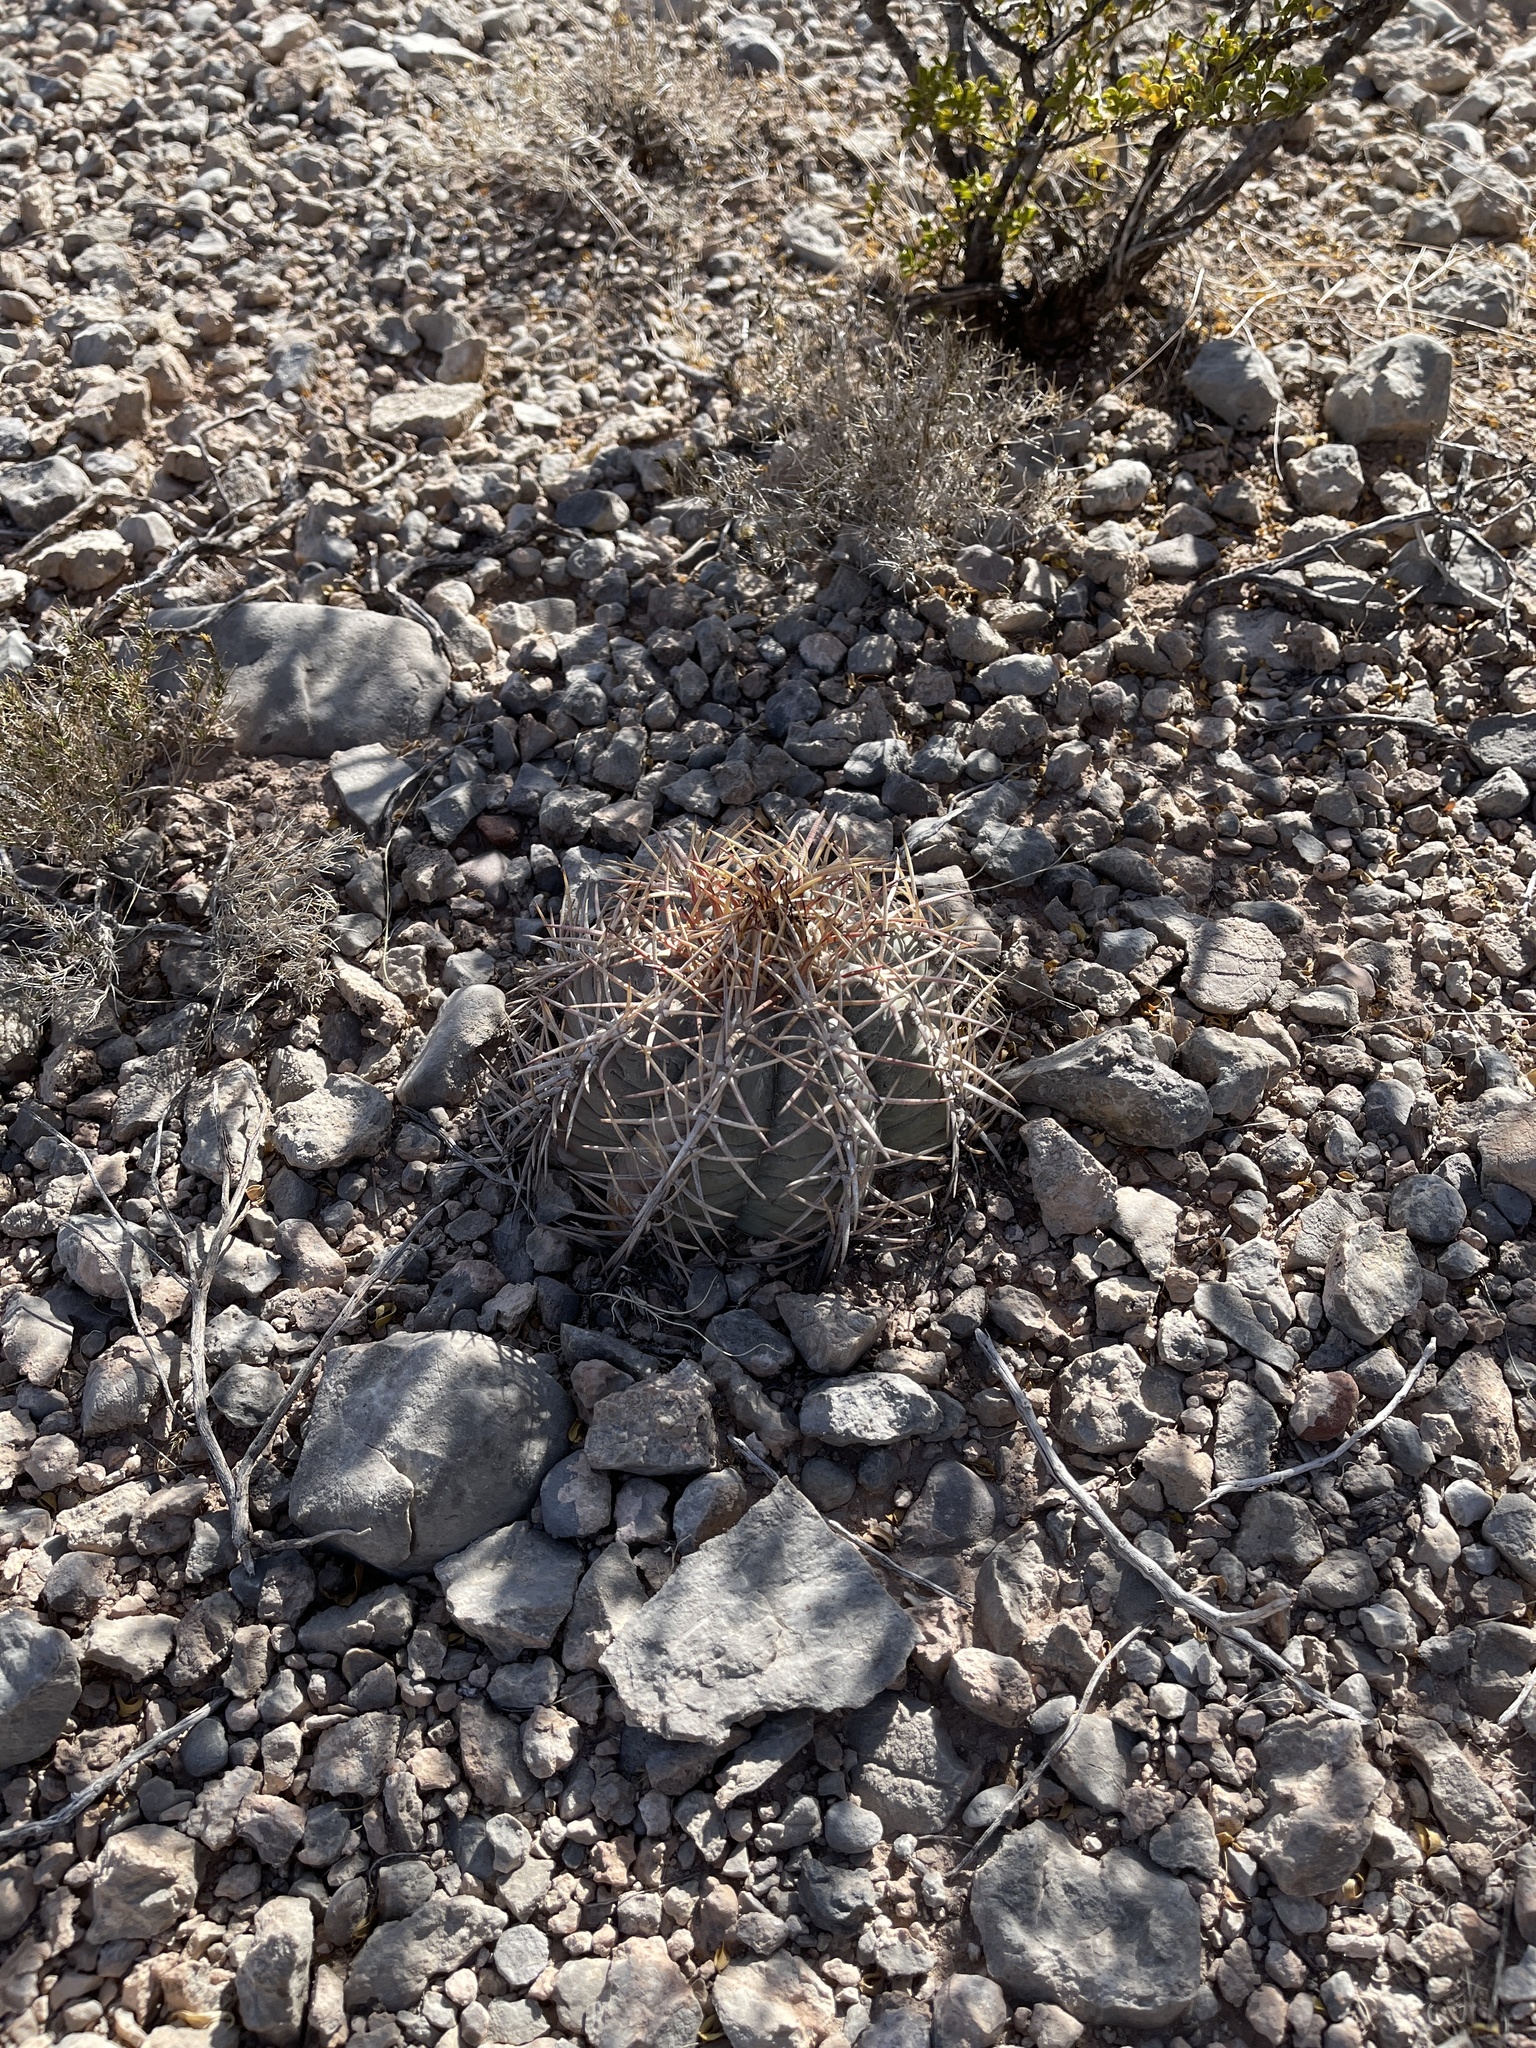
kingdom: Plantae
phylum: Tracheophyta
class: Magnoliopsida
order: Caryophyllales
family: Cactaceae
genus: Echinocactus
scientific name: Echinocactus horizonthalonius
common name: Devilshead
